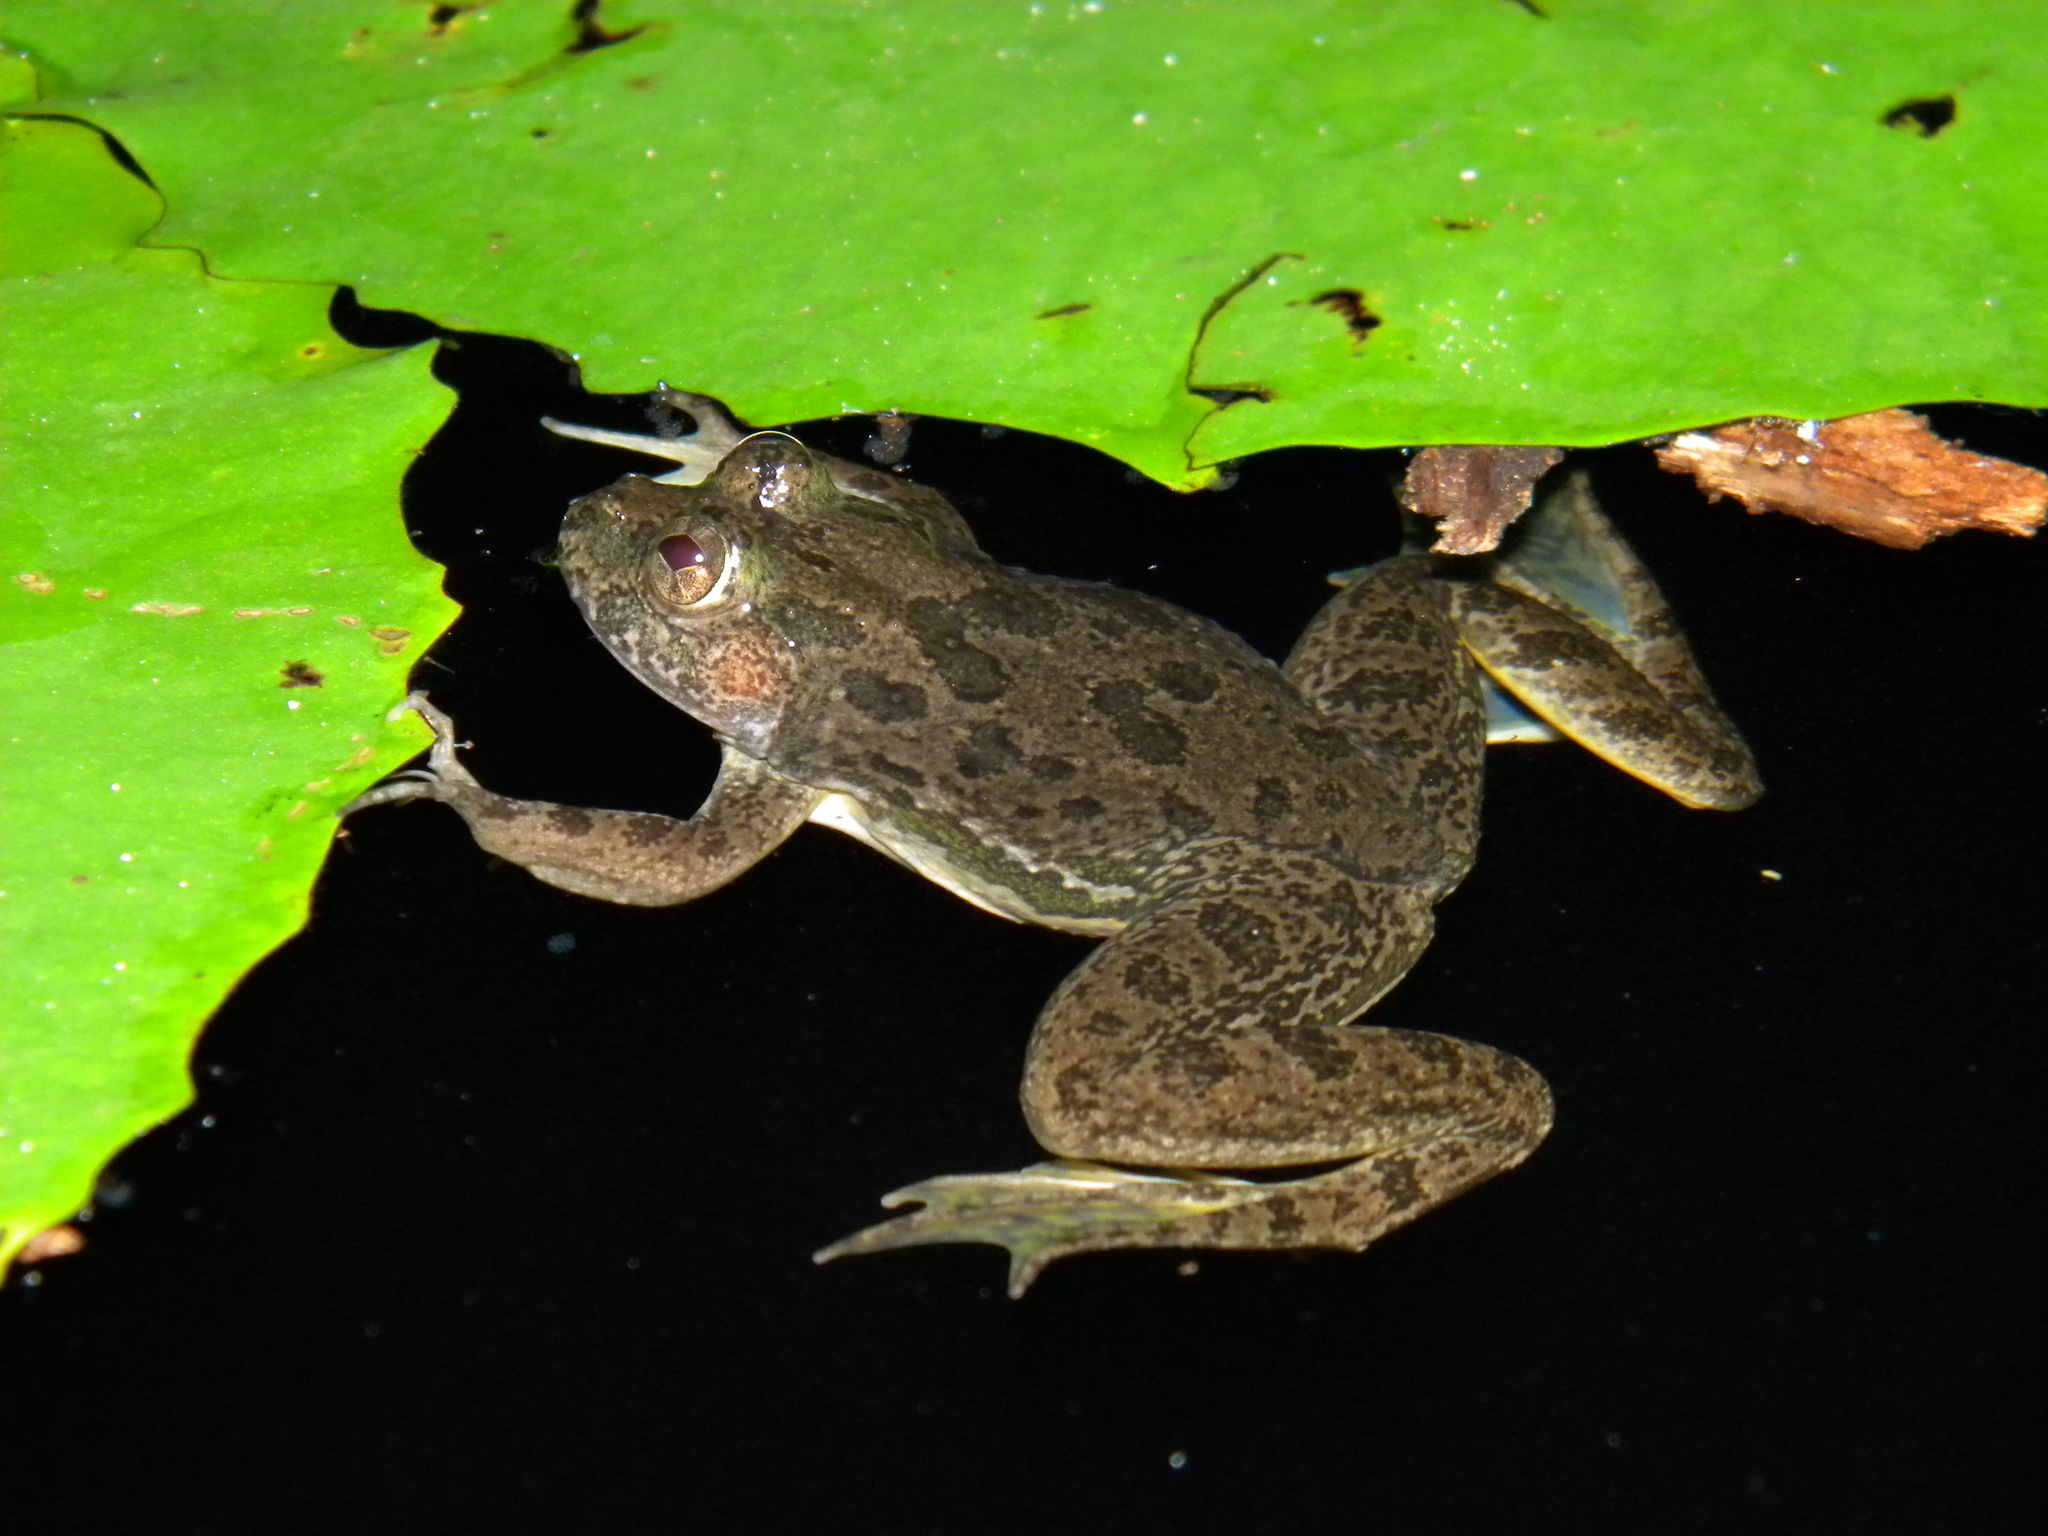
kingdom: Animalia
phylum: Chordata
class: Amphibia
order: Anura
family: Dicroglossidae
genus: Euphlyctis
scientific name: Euphlyctis cyanophlyctis
